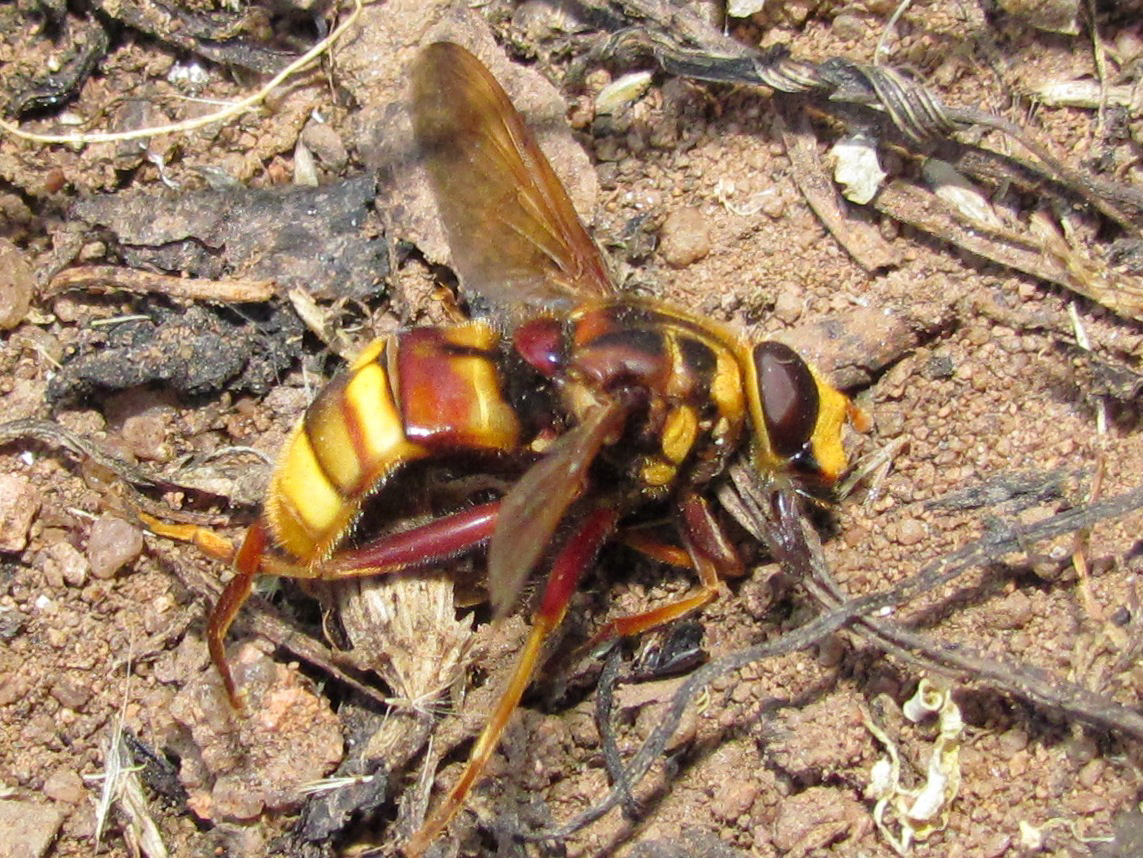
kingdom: Animalia
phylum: Arthropoda
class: Insecta
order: Diptera
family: Syrphidae
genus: Milesia
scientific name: Milesia crabroniformis
